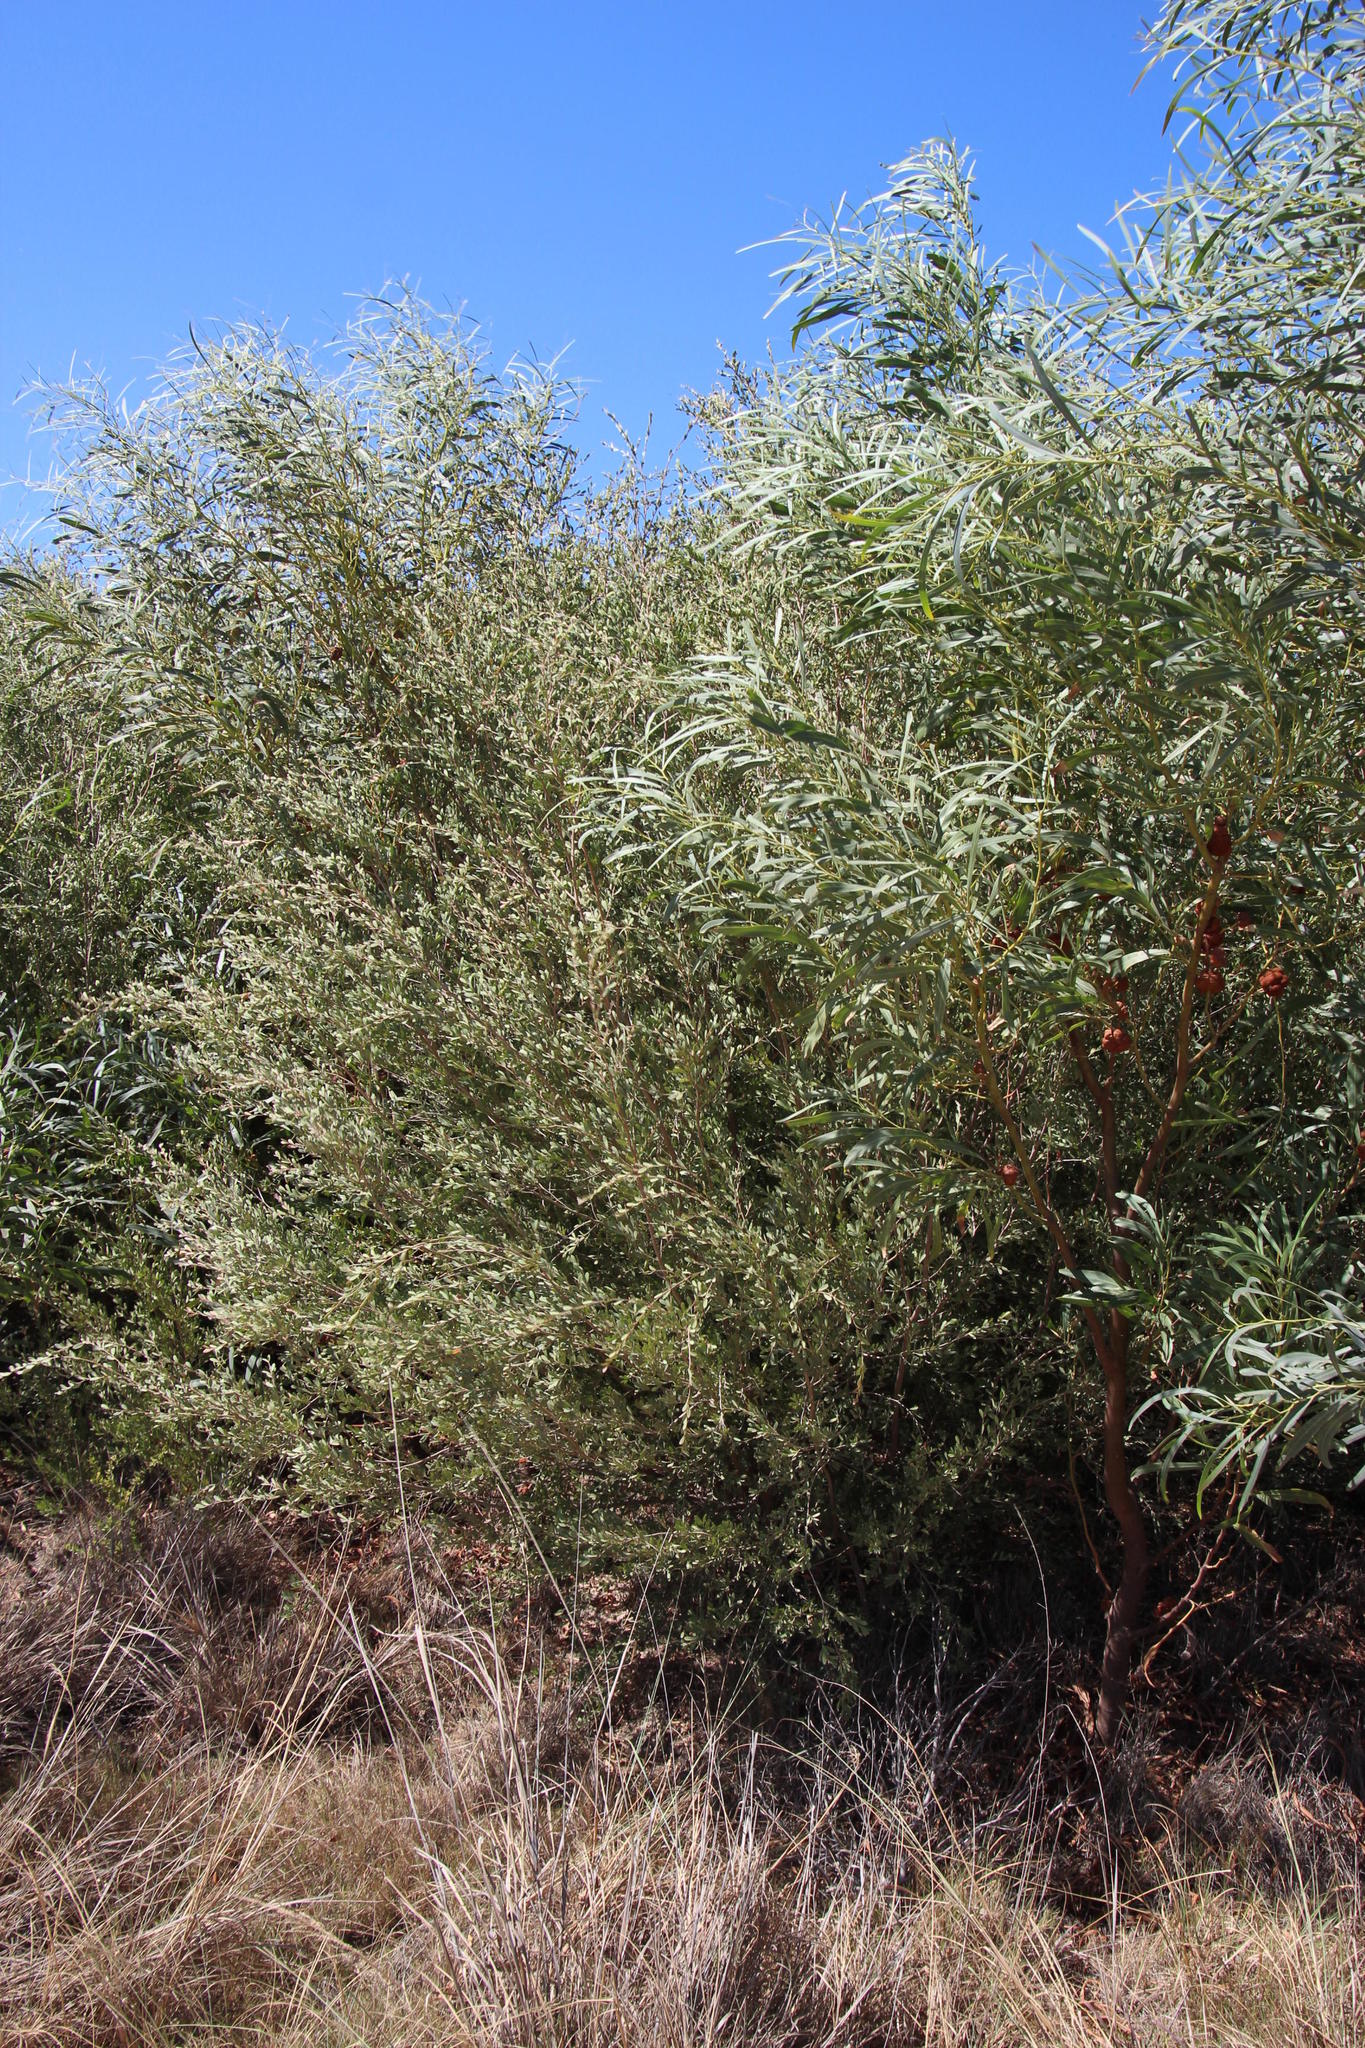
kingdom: Plantae
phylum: Tracheophyta
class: Magnoliopsida
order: Myrtales
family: Myrtaceae
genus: Leptospermum
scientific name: Leptospermum laevigatum
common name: Australian teatree
